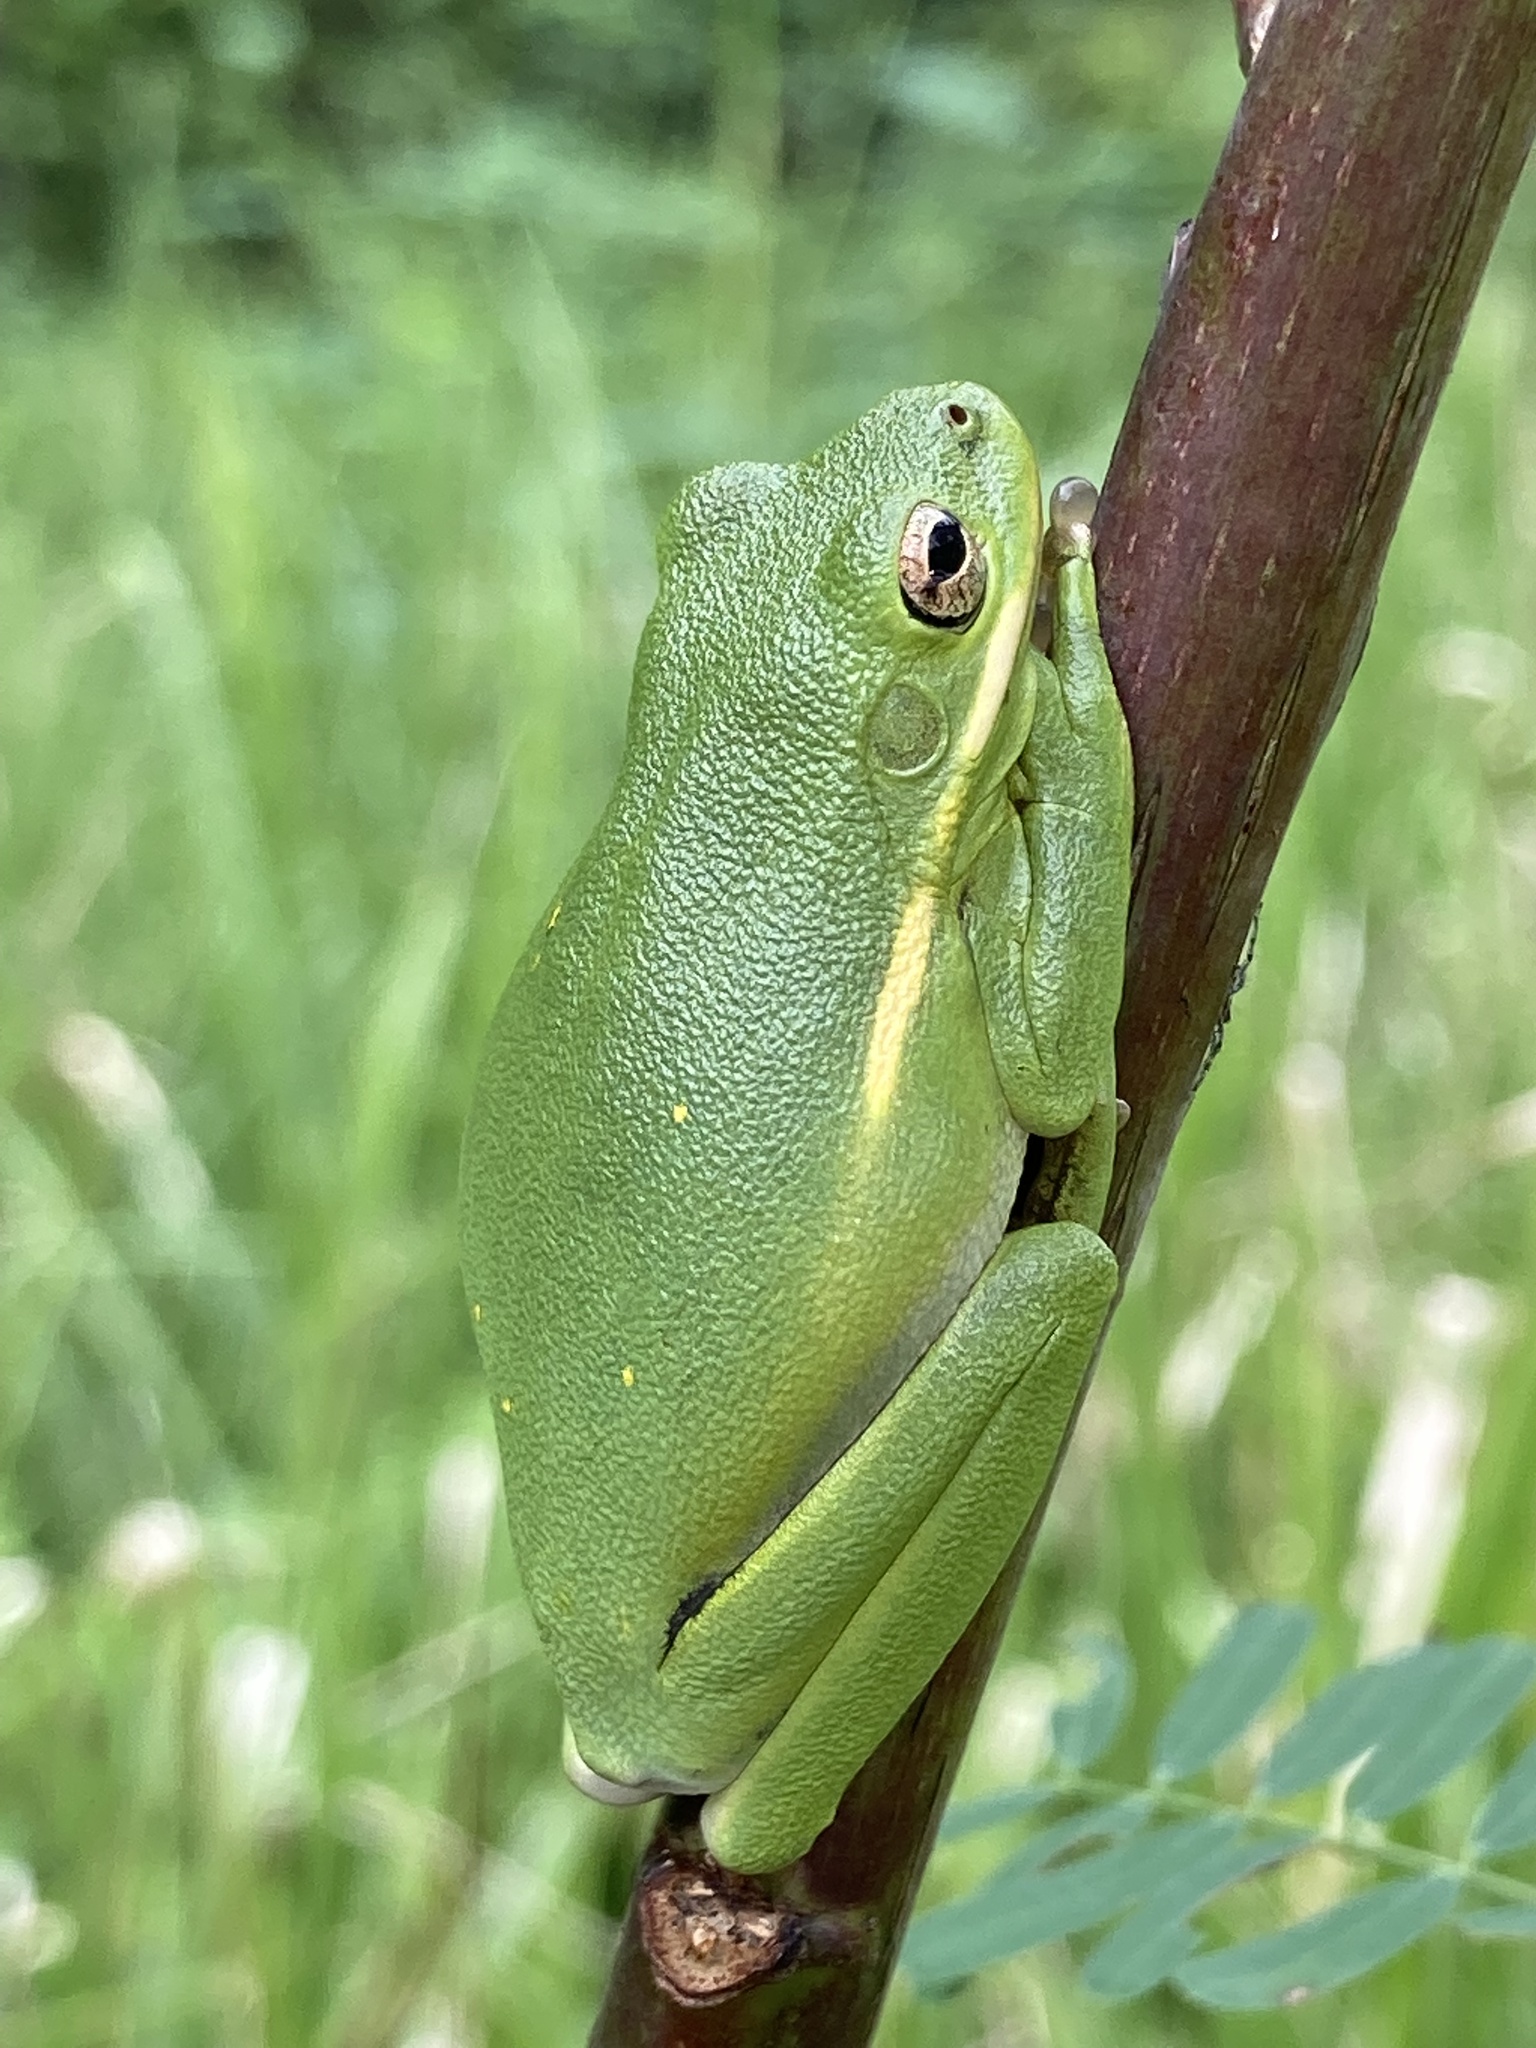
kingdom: Animalia
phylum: Chordata
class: Amphibia
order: Anura
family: Hylidae
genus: Dryophytes
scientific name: Dryophytes cinereus
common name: Green treefrog
